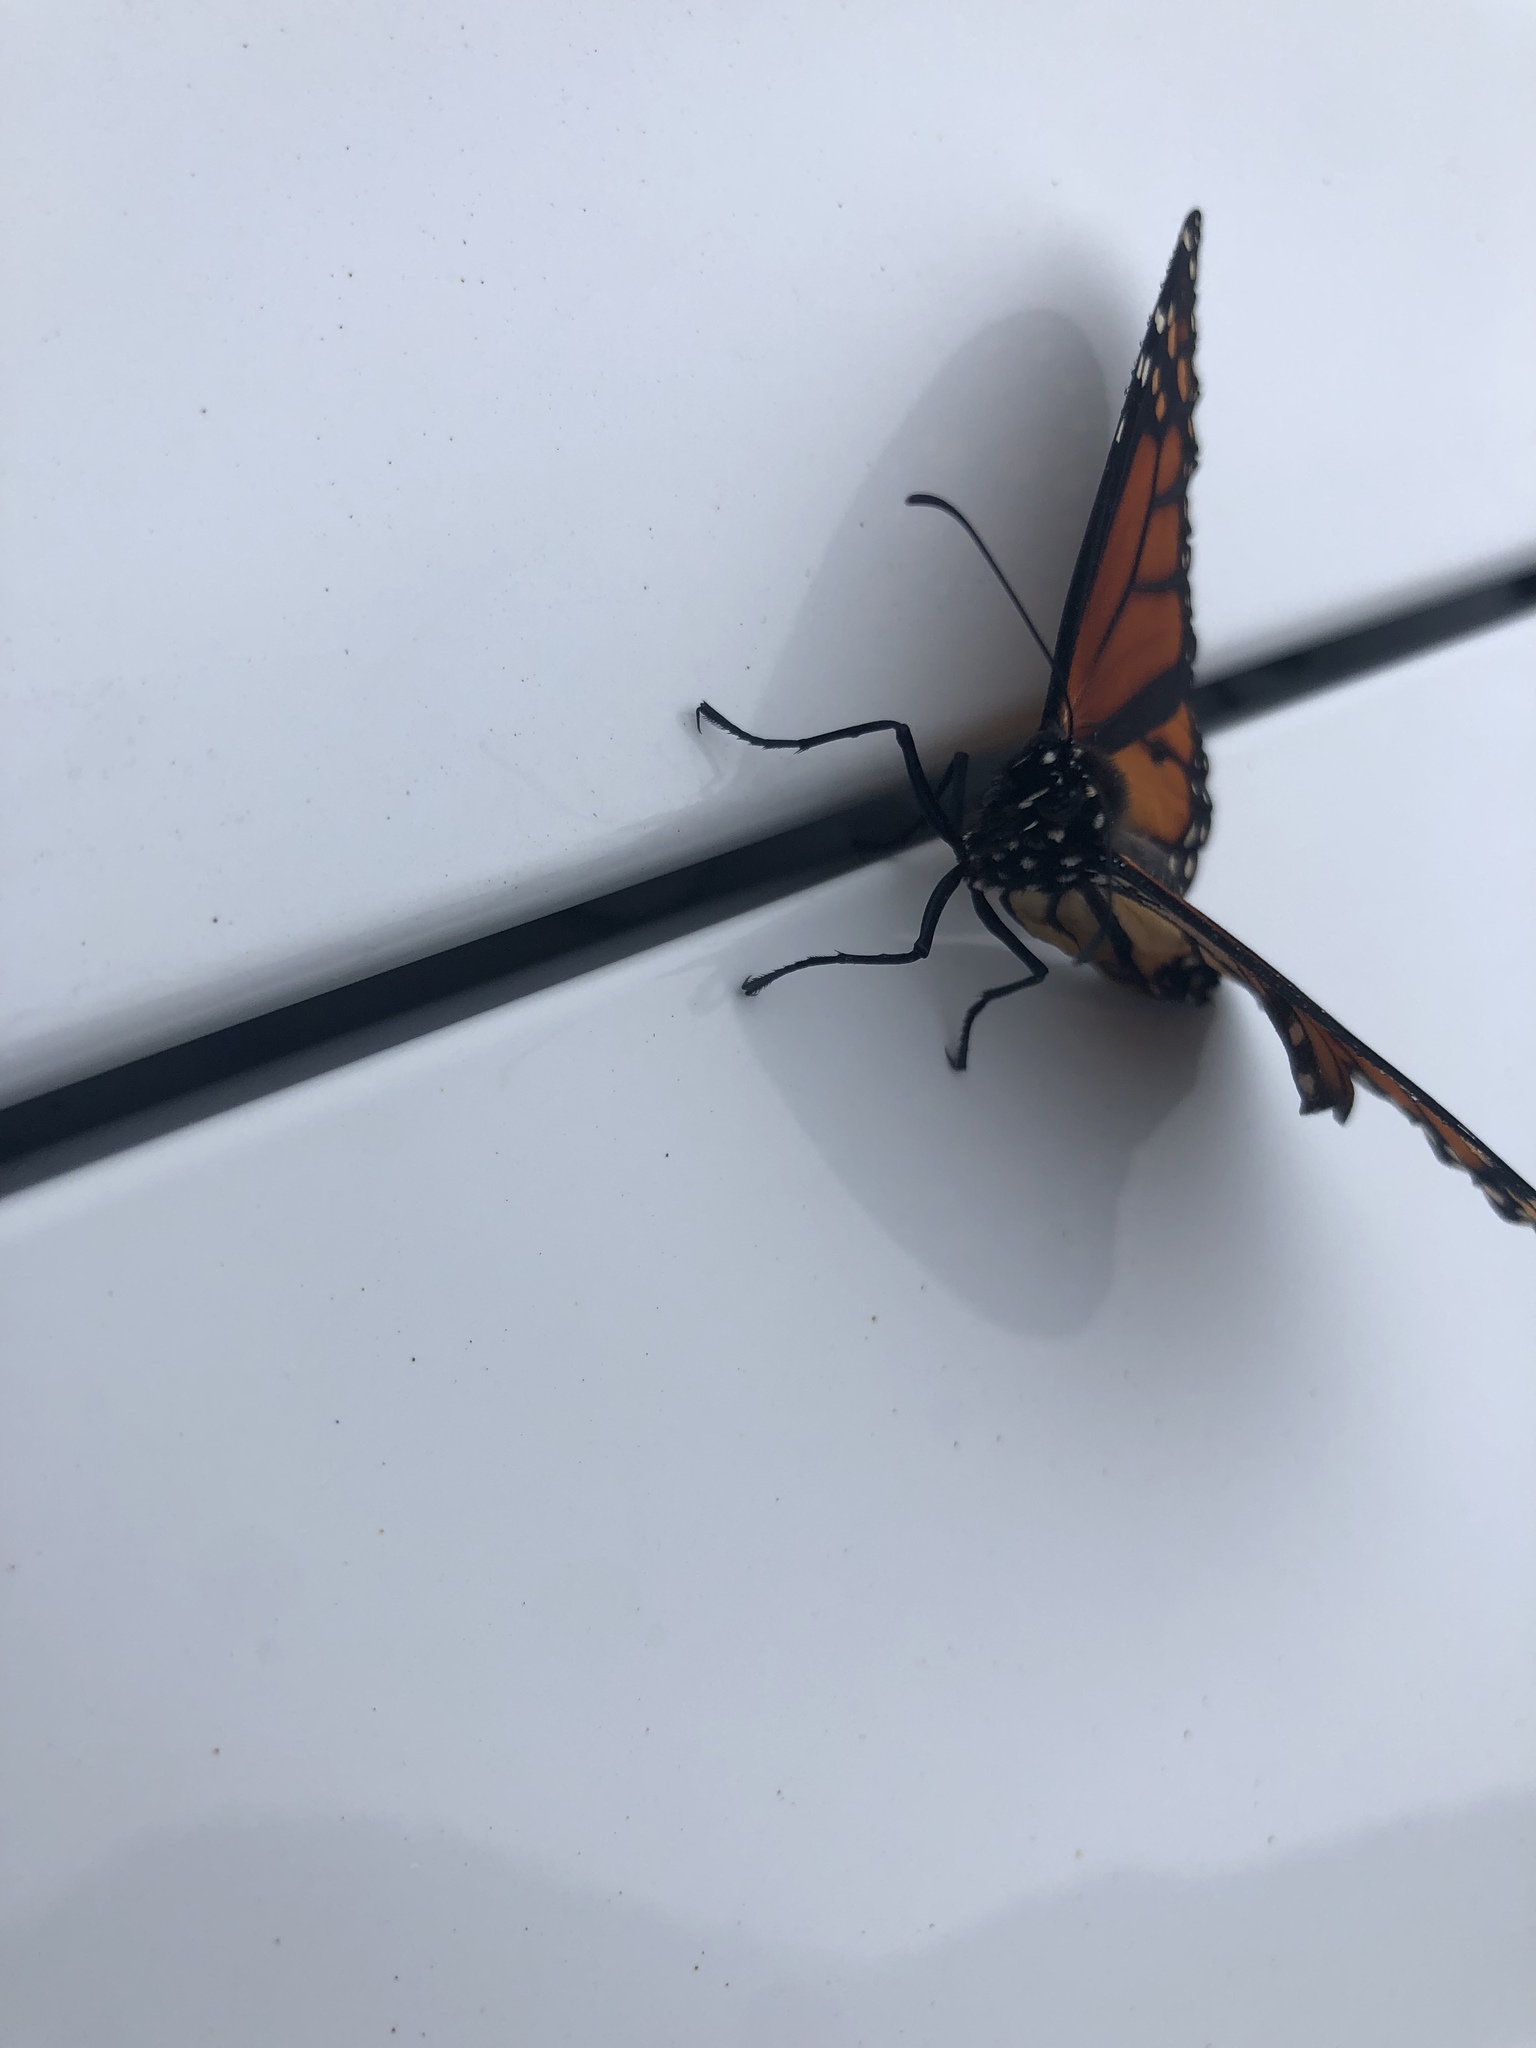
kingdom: Animalia
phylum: Arthropoda
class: Insecta
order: Lepidoptera
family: Nymphalidae
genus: Danaus
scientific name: Danaus plexippus
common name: Monarch
